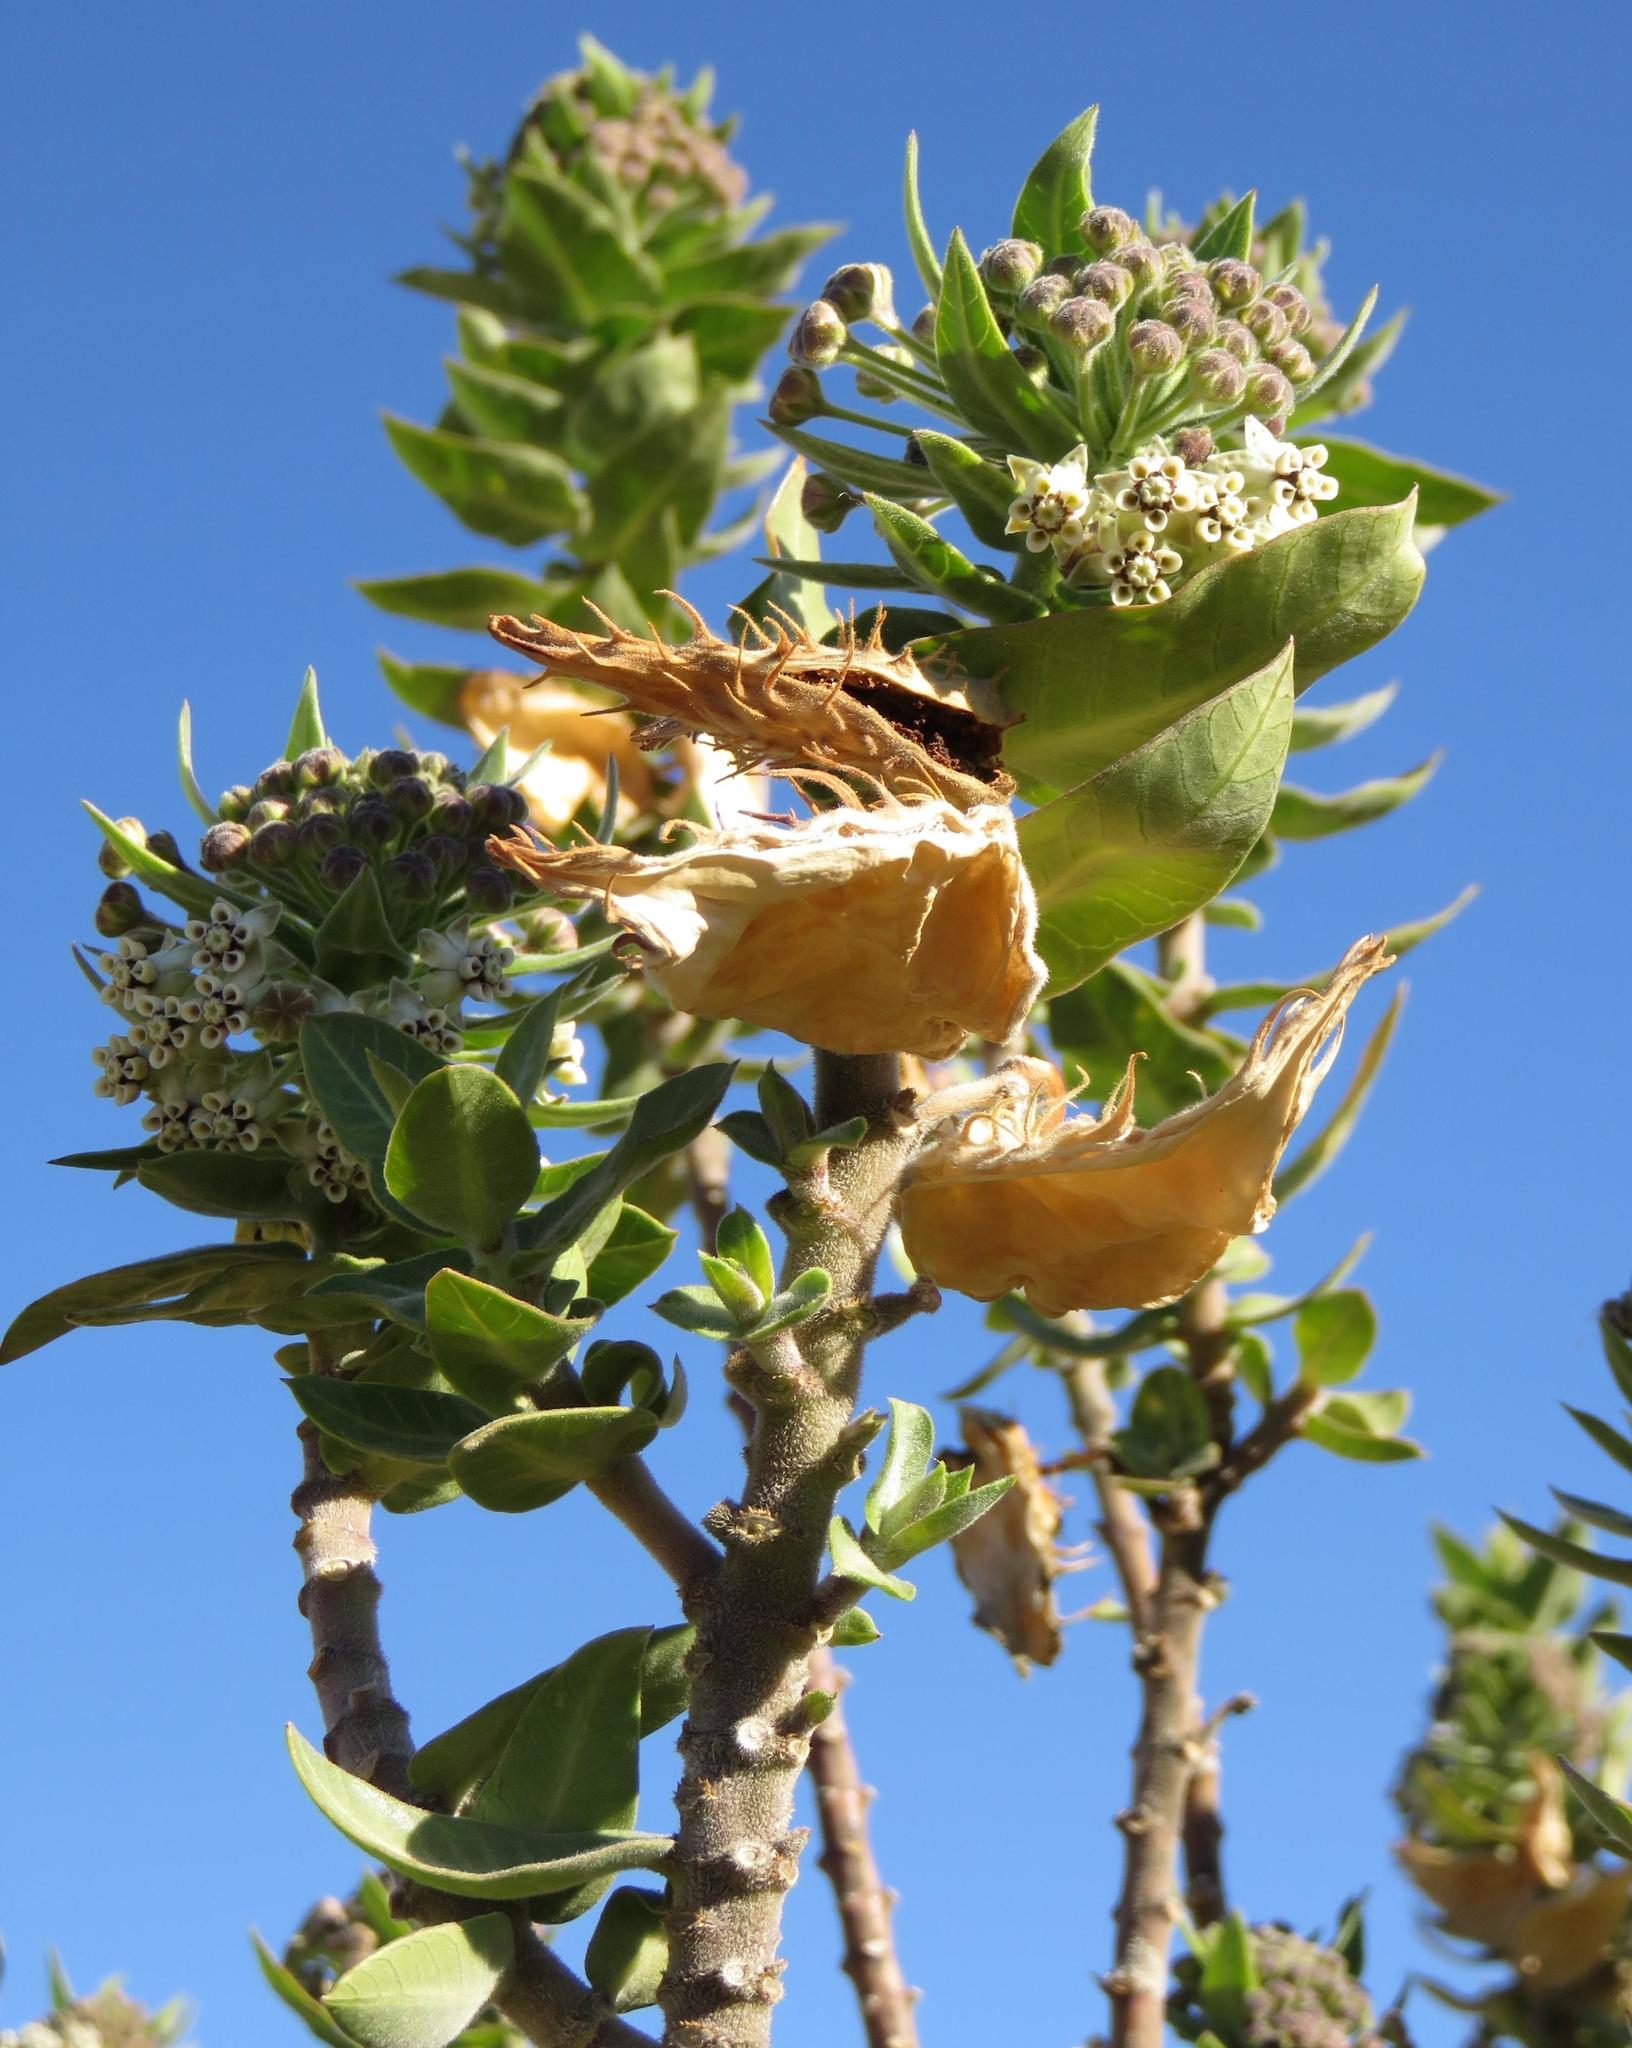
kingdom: Plantae
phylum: Tracheophyta
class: Magnoliopsida
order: Gentianales
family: Apocynaceae
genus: Gomphocarpus
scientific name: Gomphocarpus cancellatus
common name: Wild cotton
